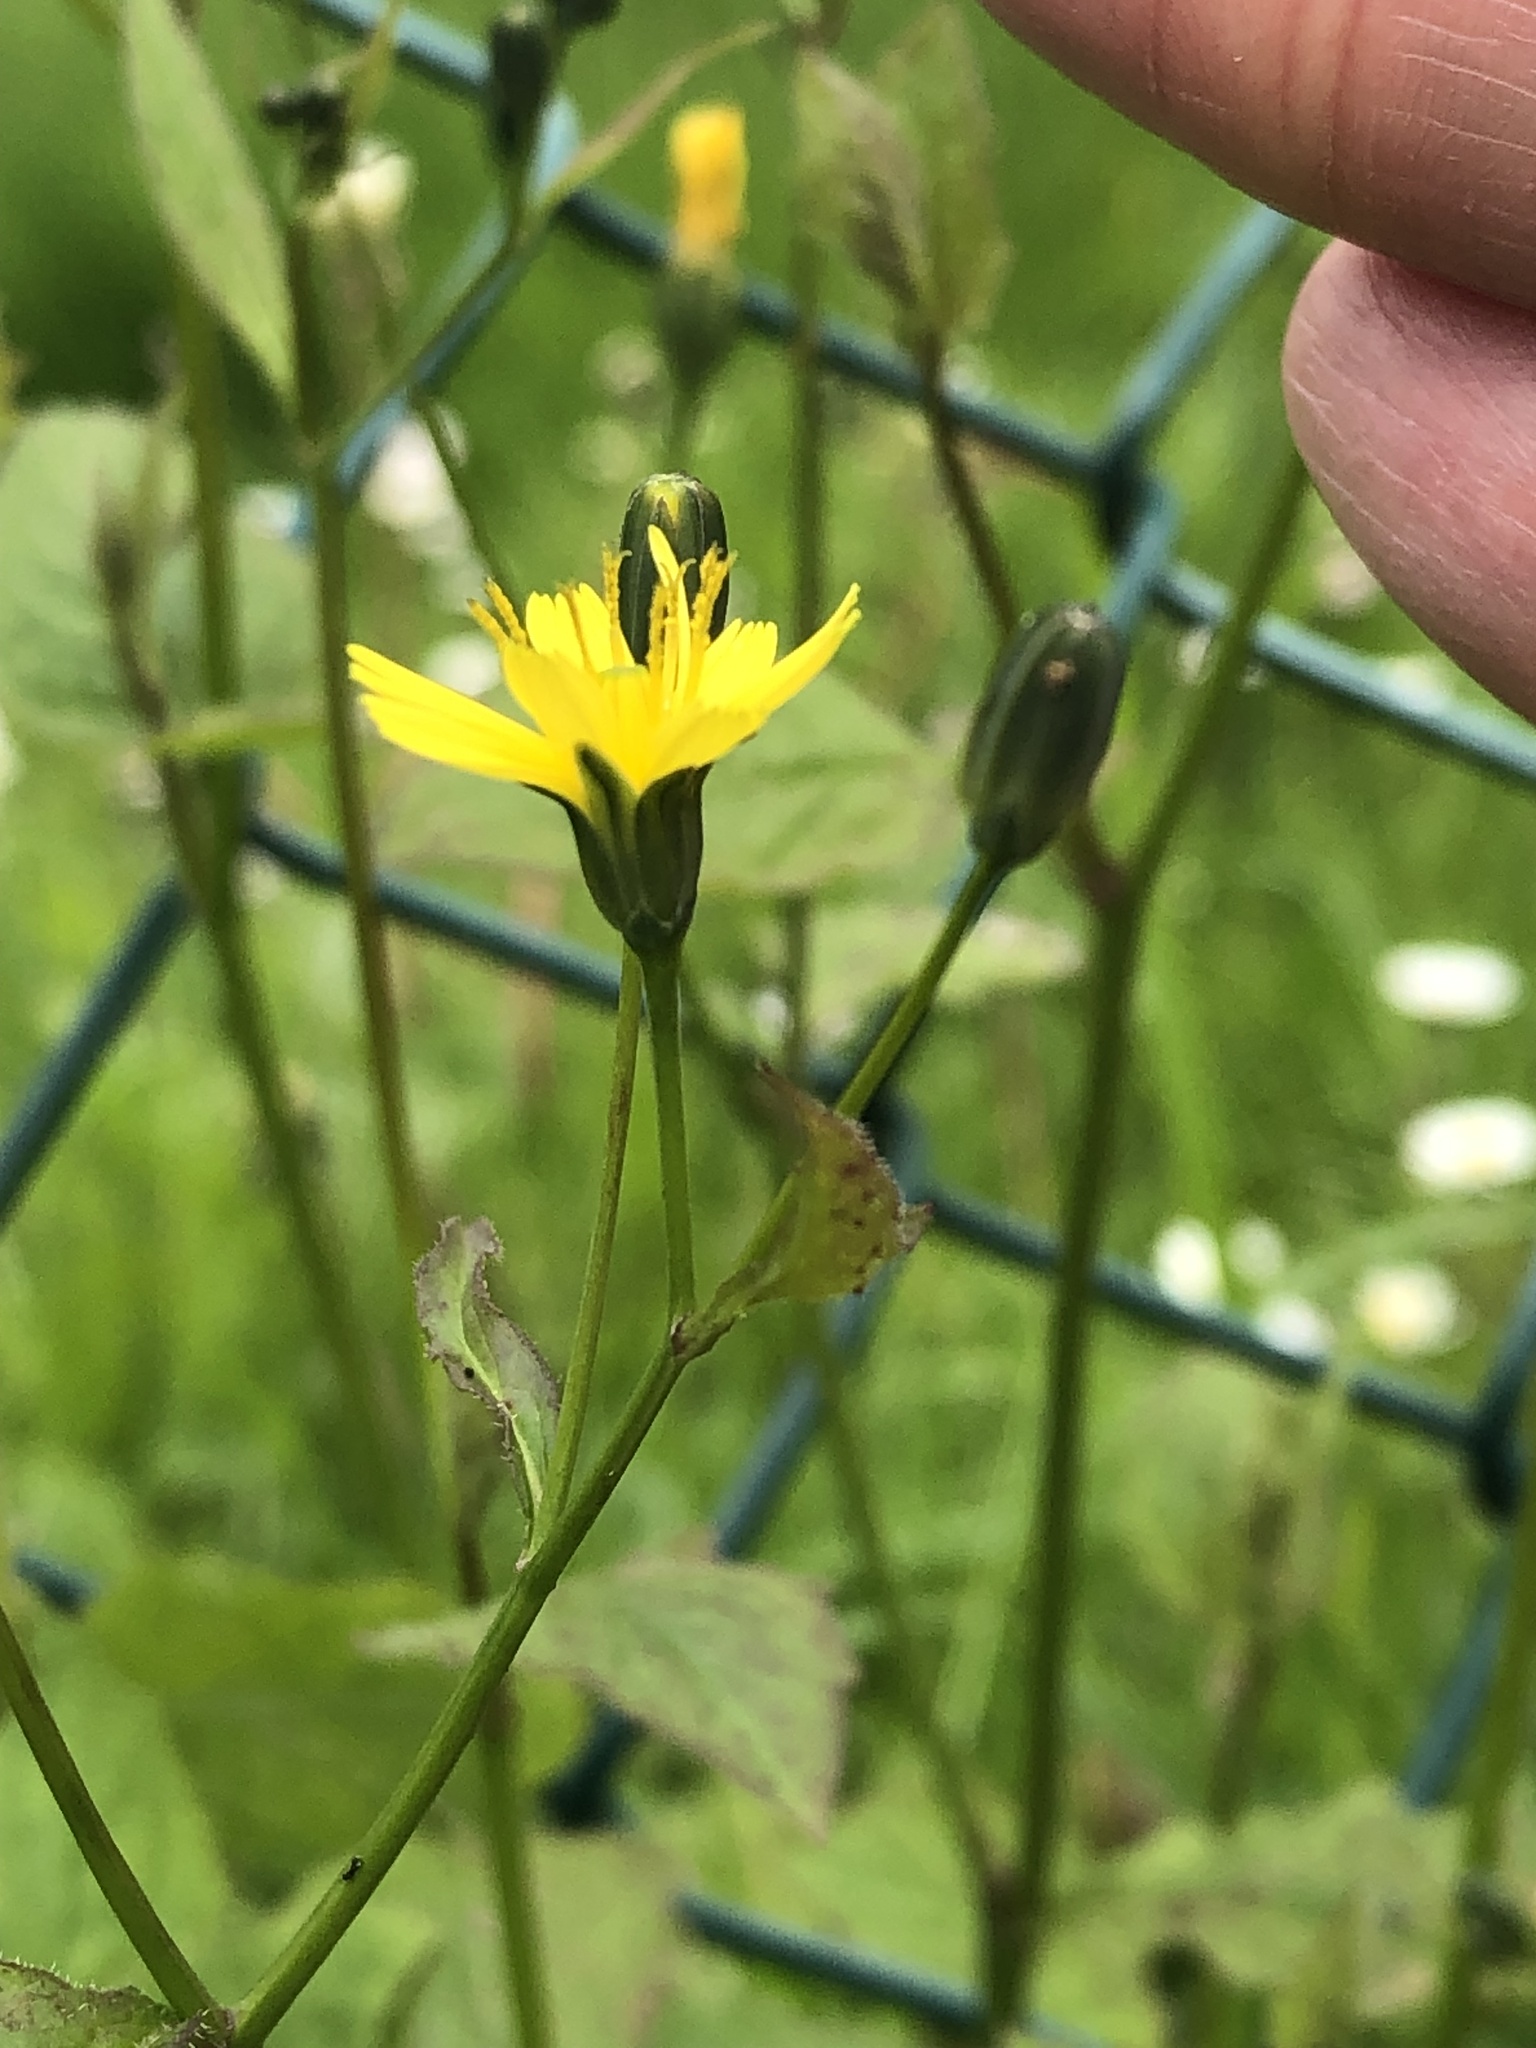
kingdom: Plantae
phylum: Tracheophyta
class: Magnoliopsida
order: Asterales
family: Asteraceae
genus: Lapsana
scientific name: Lapsana communis
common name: Nipplewort
